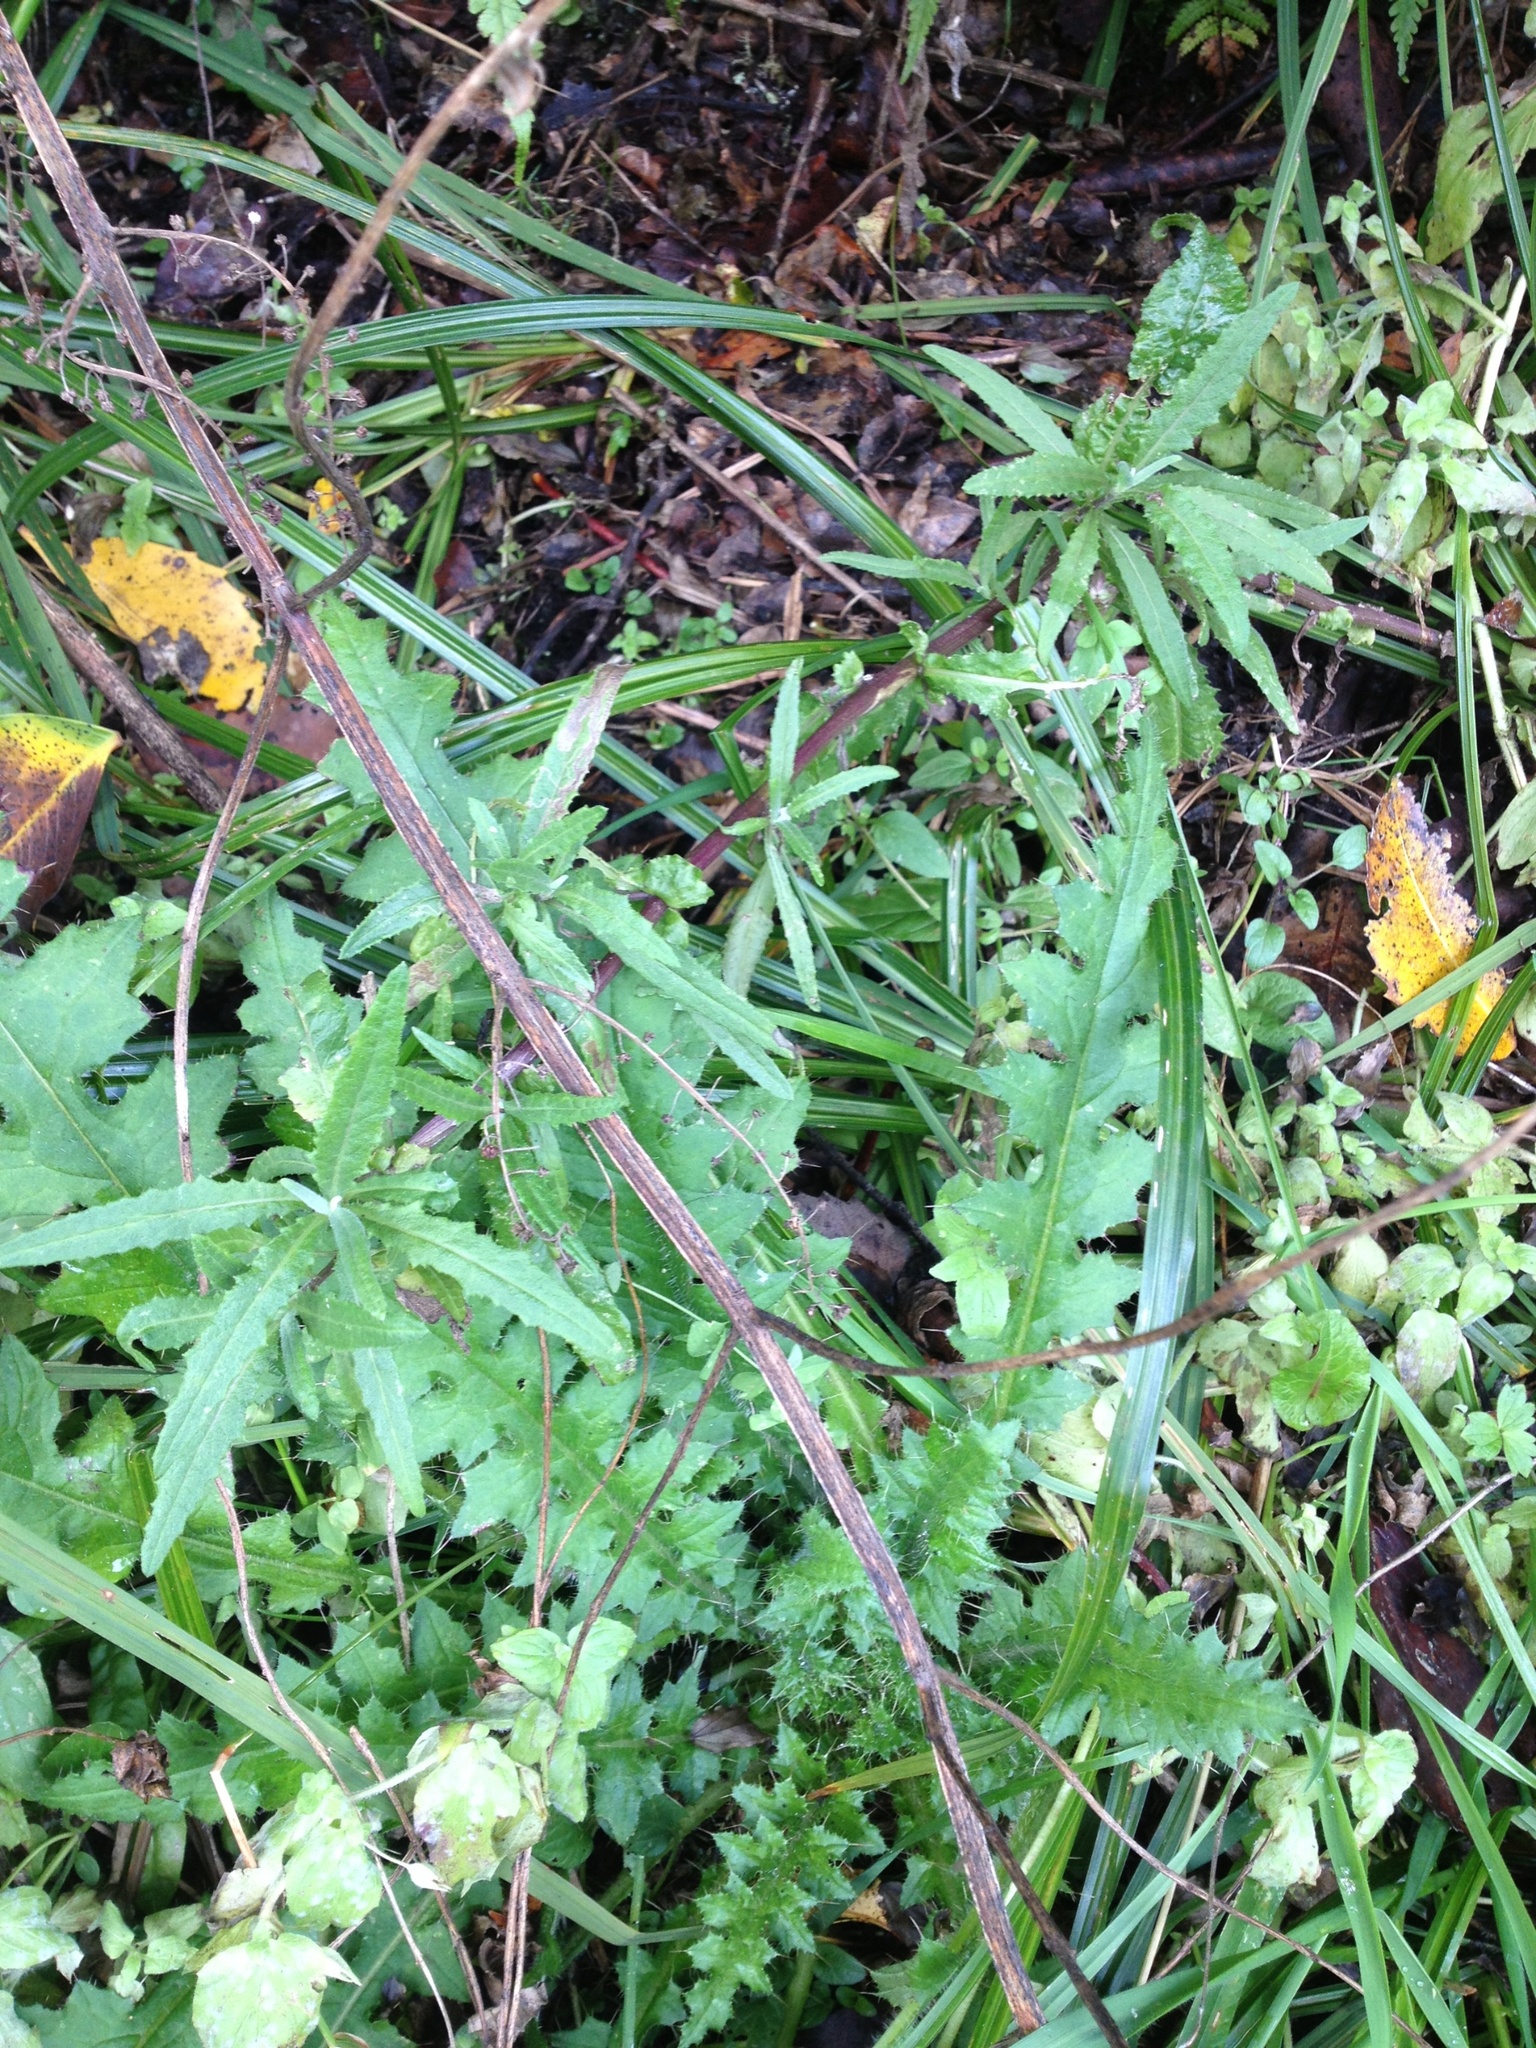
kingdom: Plantae
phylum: Tracheophyta
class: Magnoliopsida
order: Asterales
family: Asteraceae
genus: Senecio
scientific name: Senecio minimus
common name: Toothed fireweed
